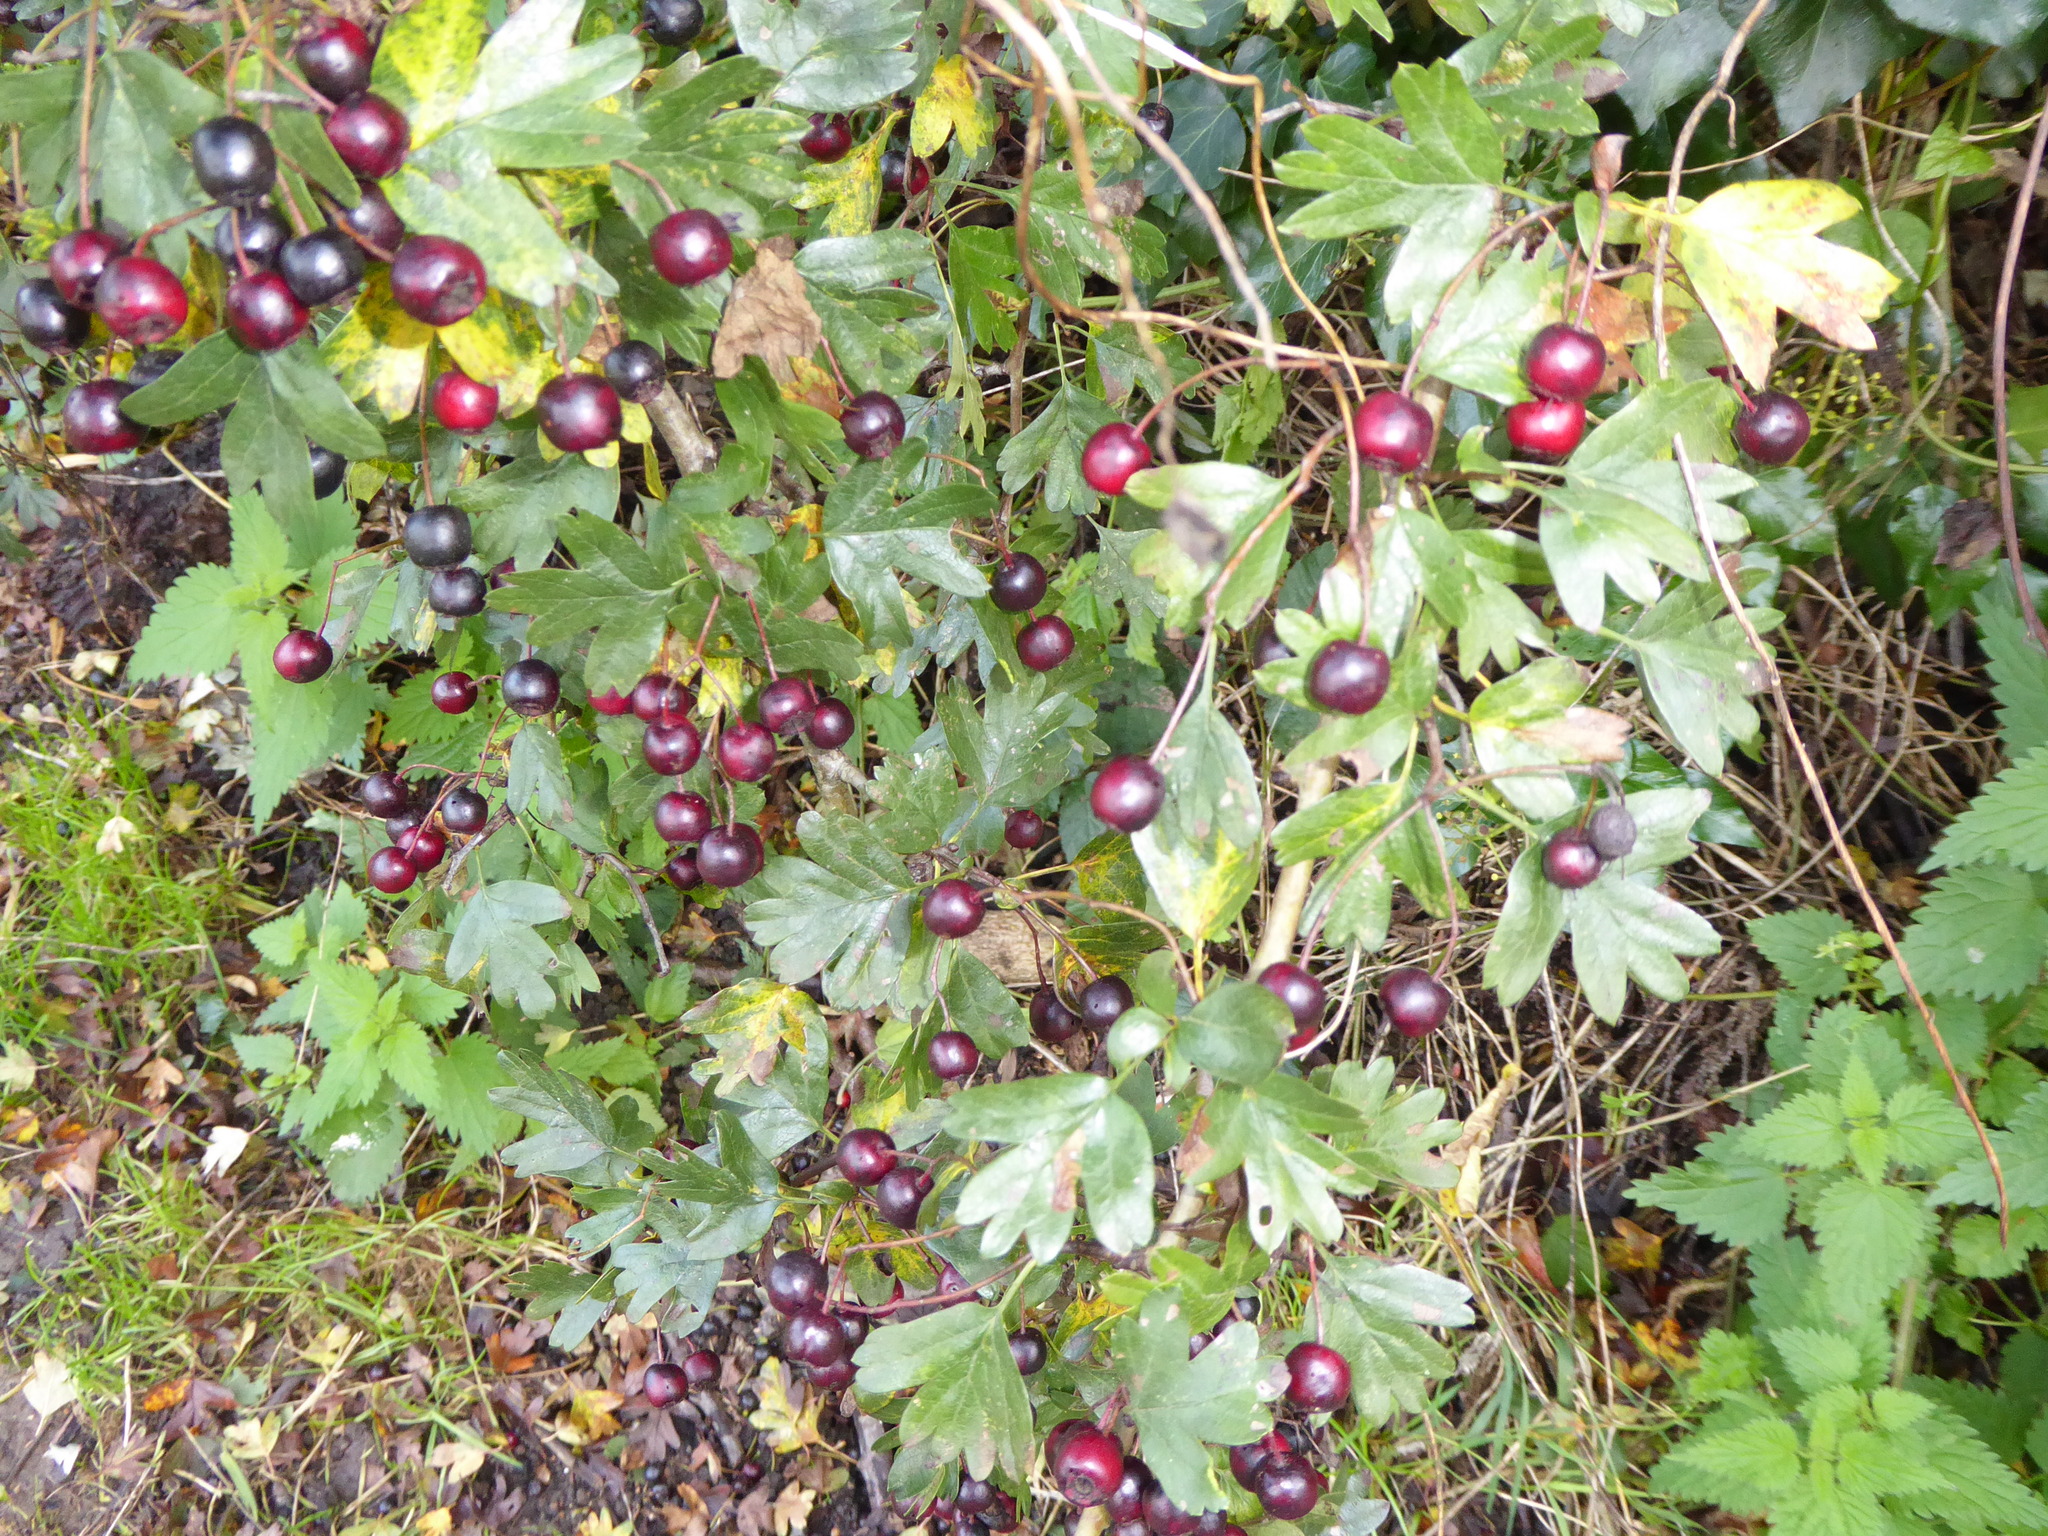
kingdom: Plantae
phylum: Tracheophyta
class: Magnoliopsida
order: Rosales
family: Rosaceae
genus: Crataegus
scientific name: Crataegus monogyna
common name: Hawthorn
